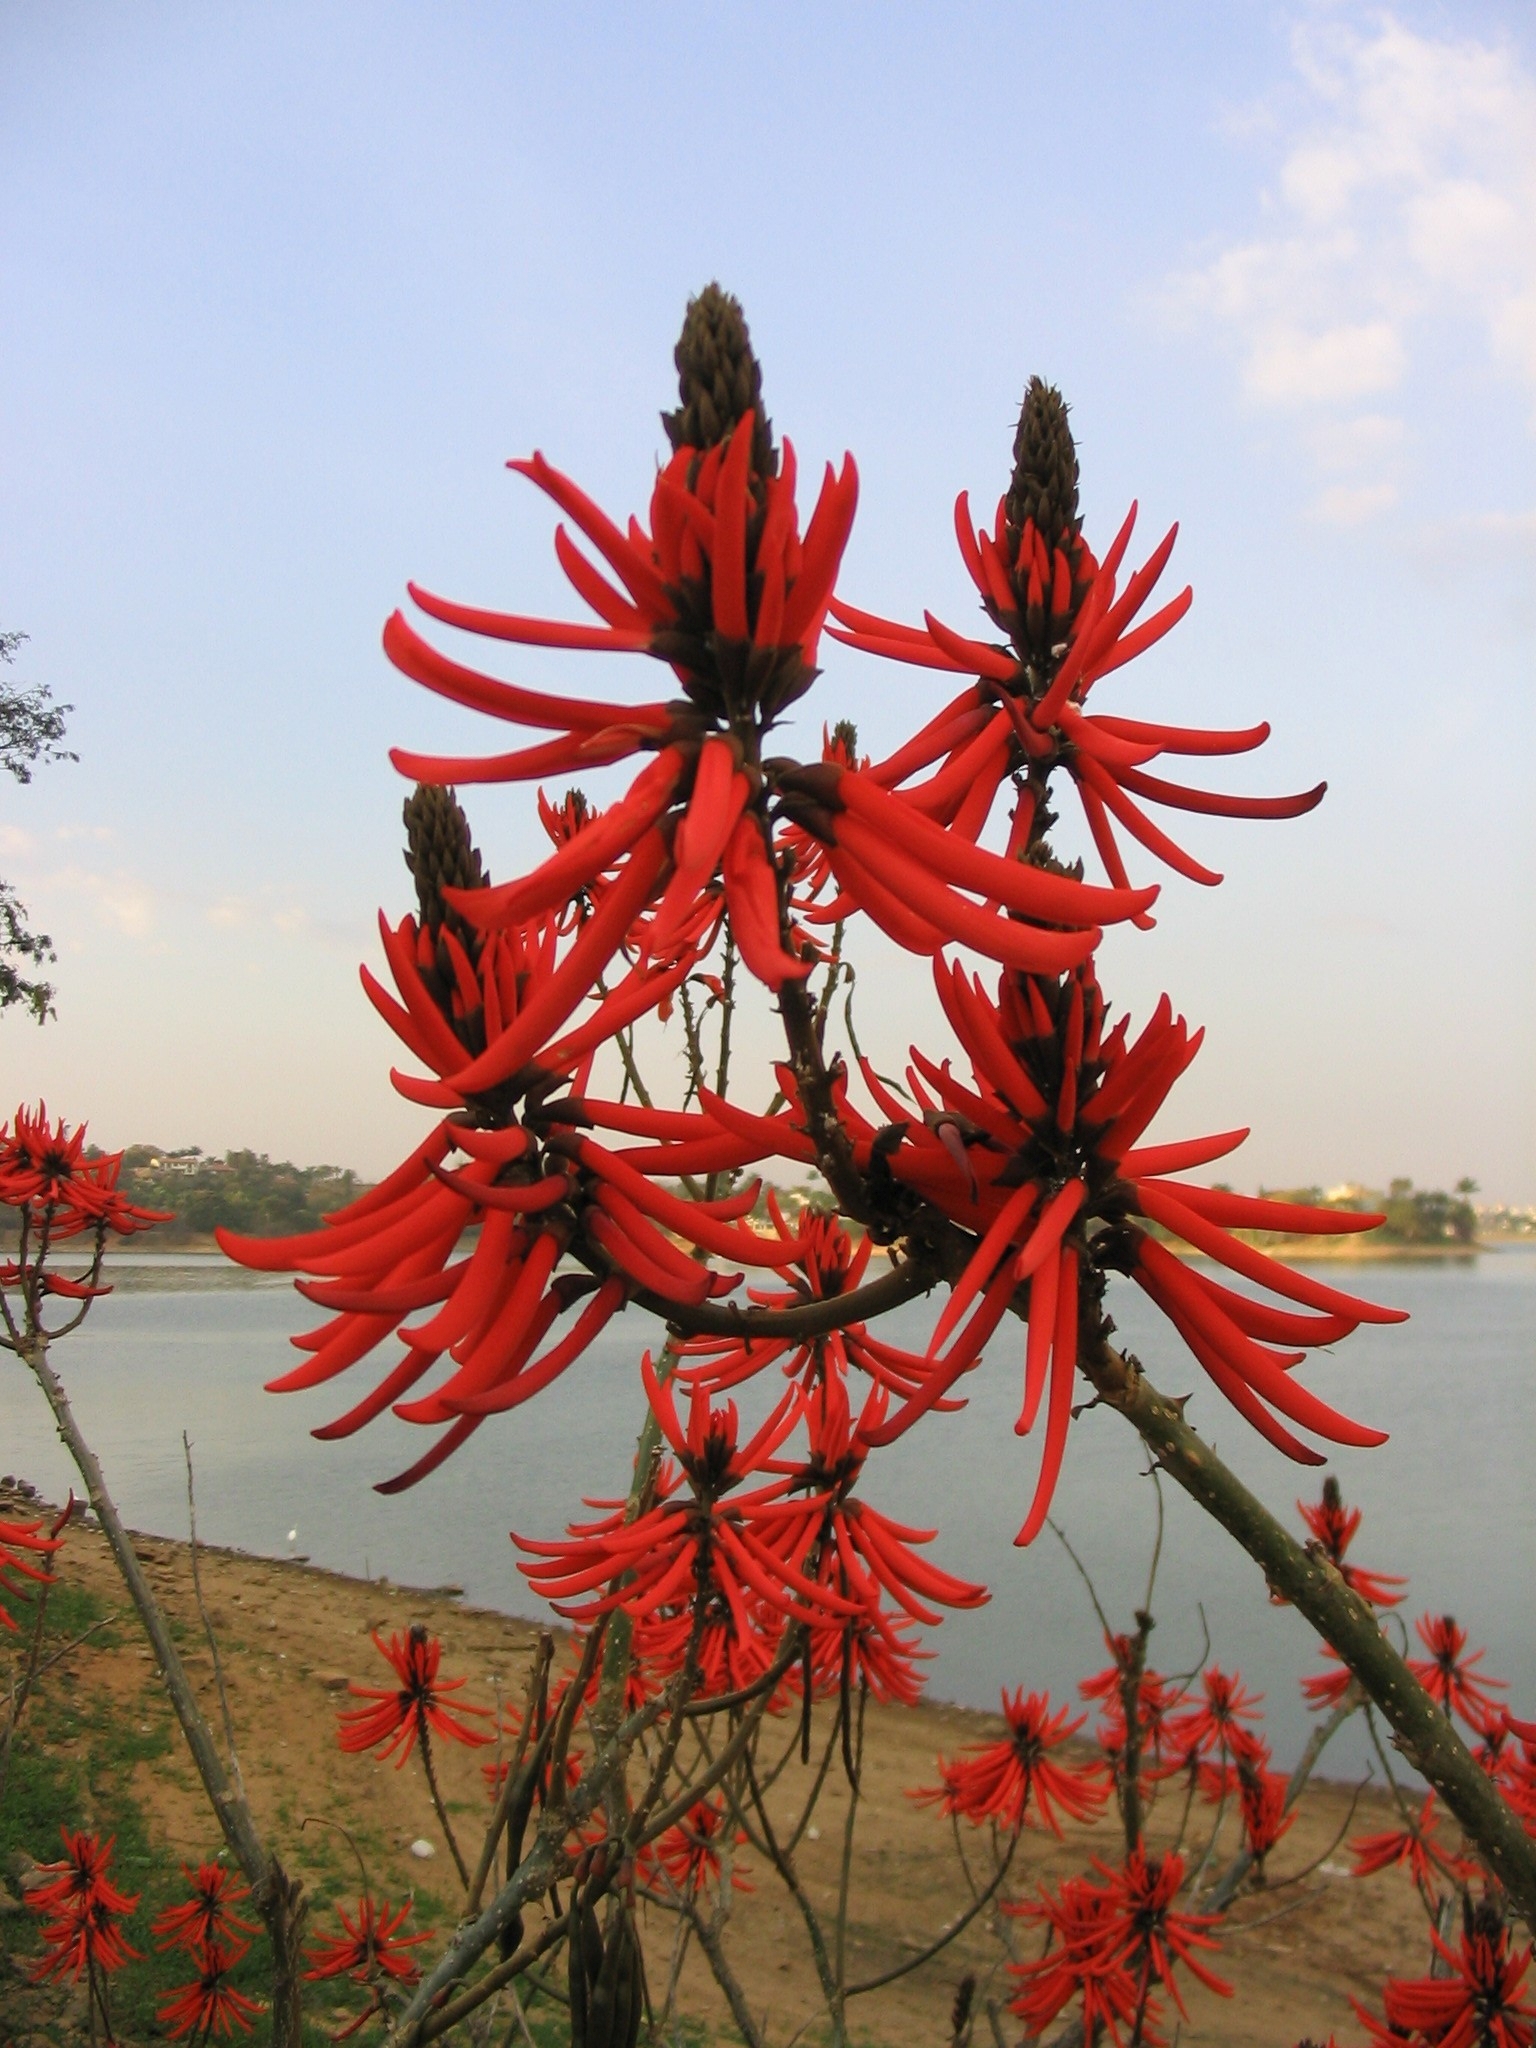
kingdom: Plantae
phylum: Tracheophyta
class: Magnoliopsida
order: Fabales
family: Fabaceae
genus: Erythrina
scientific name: Erythrina speciosa
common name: Coral tree
